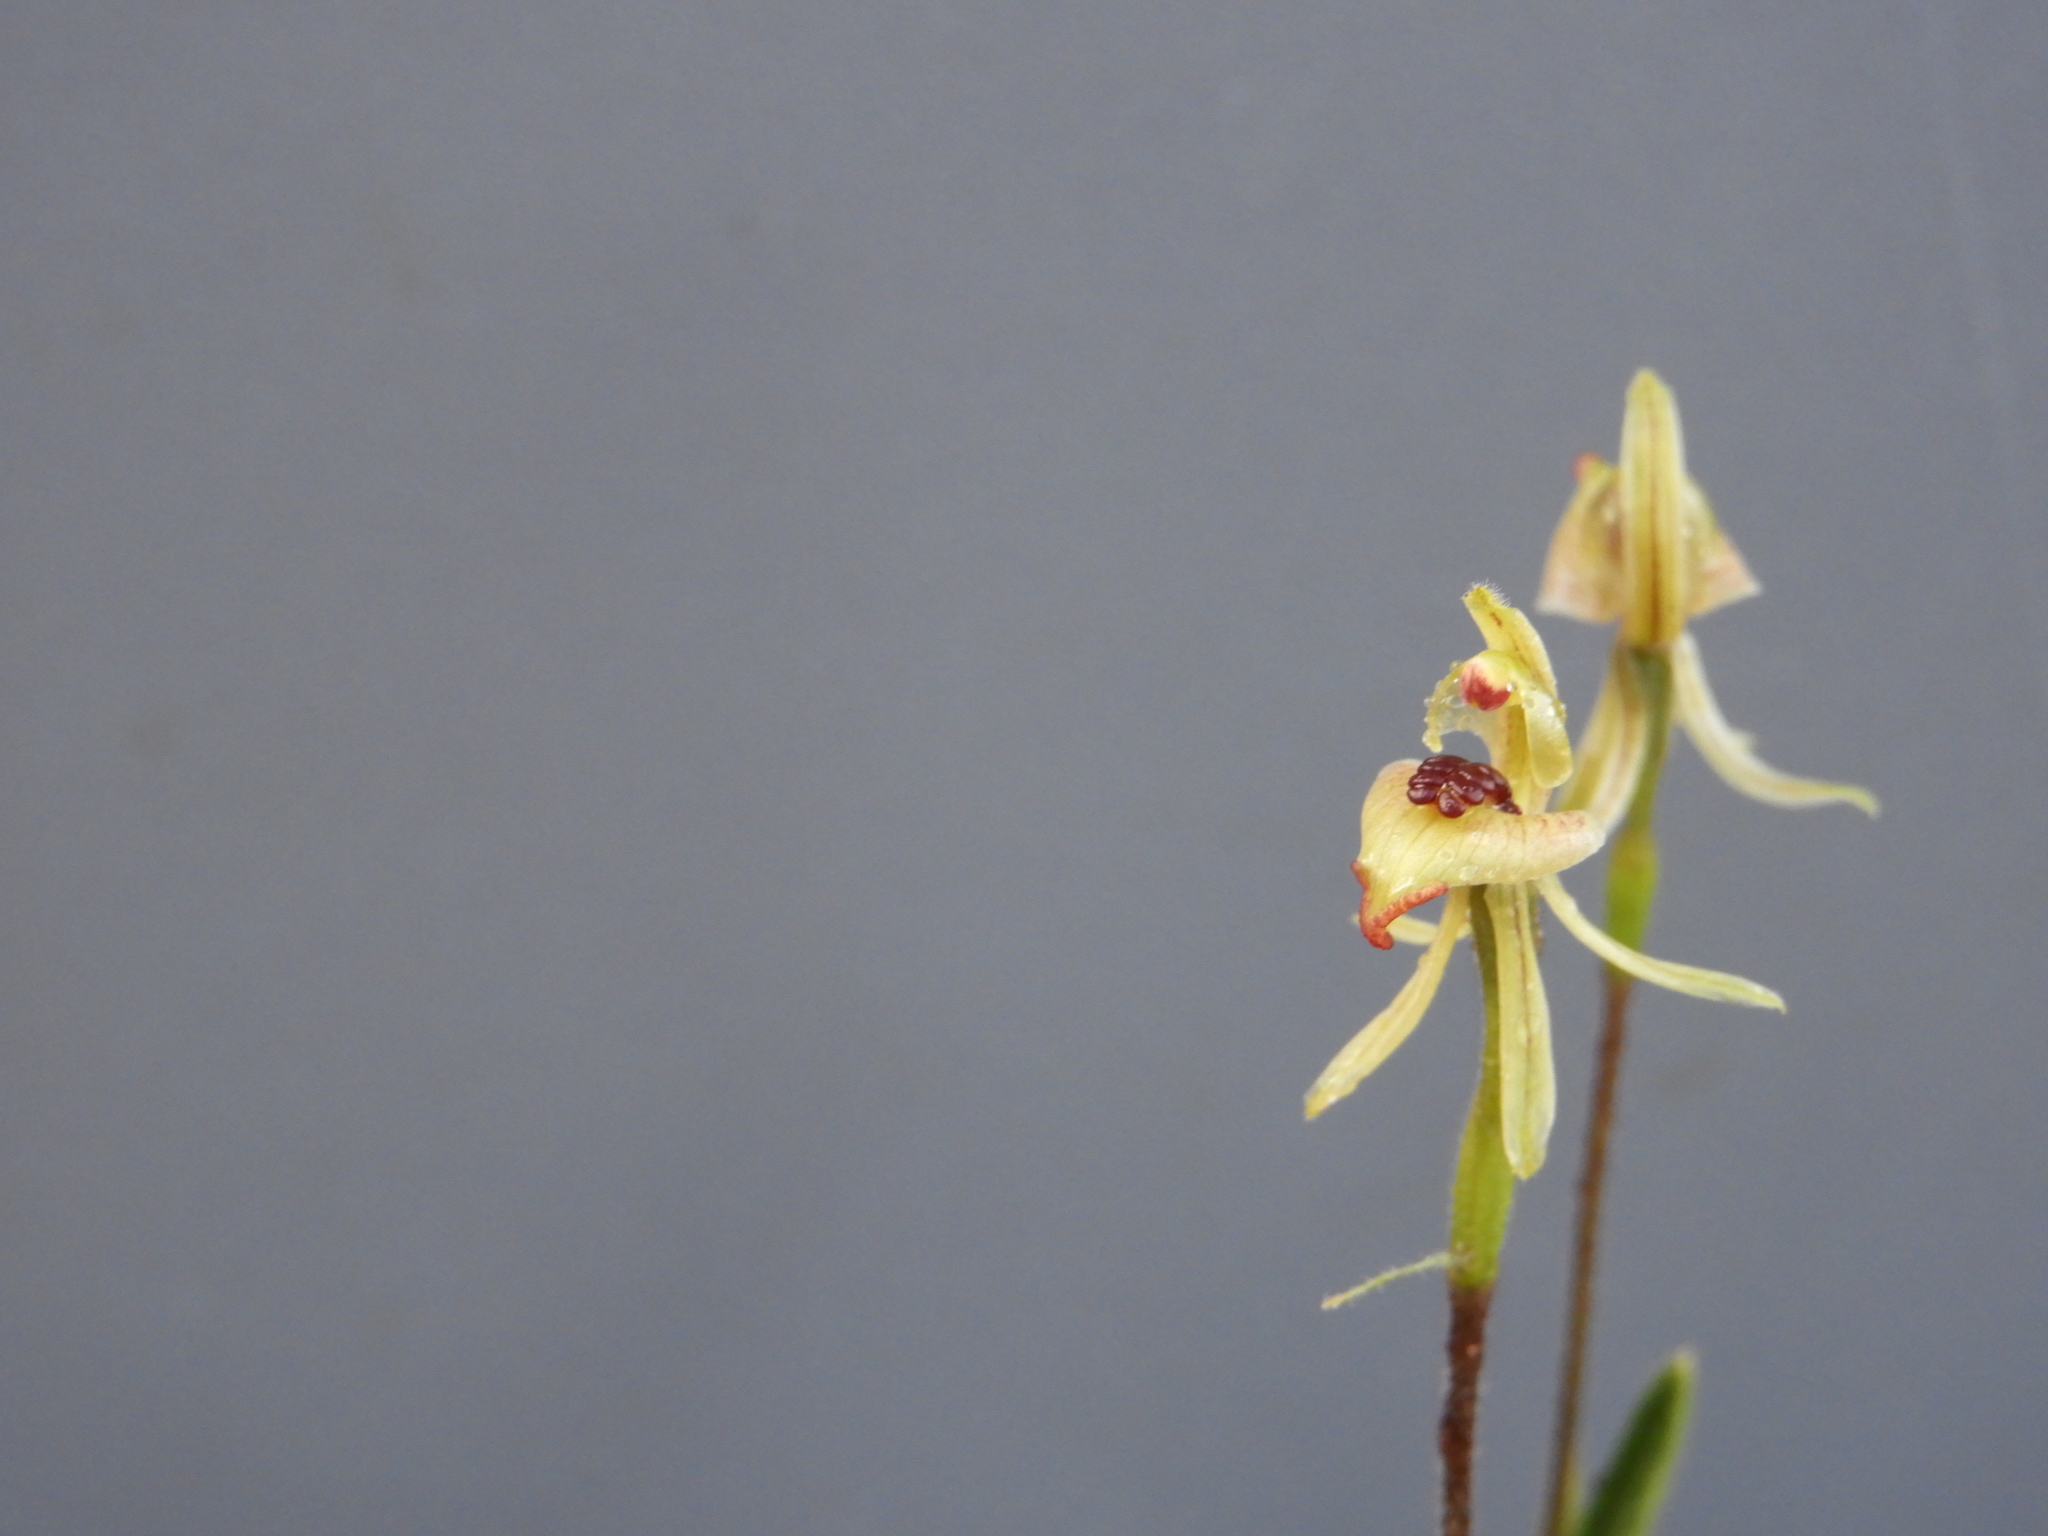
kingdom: Plantae
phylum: Tracheophyta
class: Liliopsida
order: Asparagales
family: Orchidaceae
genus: Caladenia
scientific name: Caladenia pachychila
